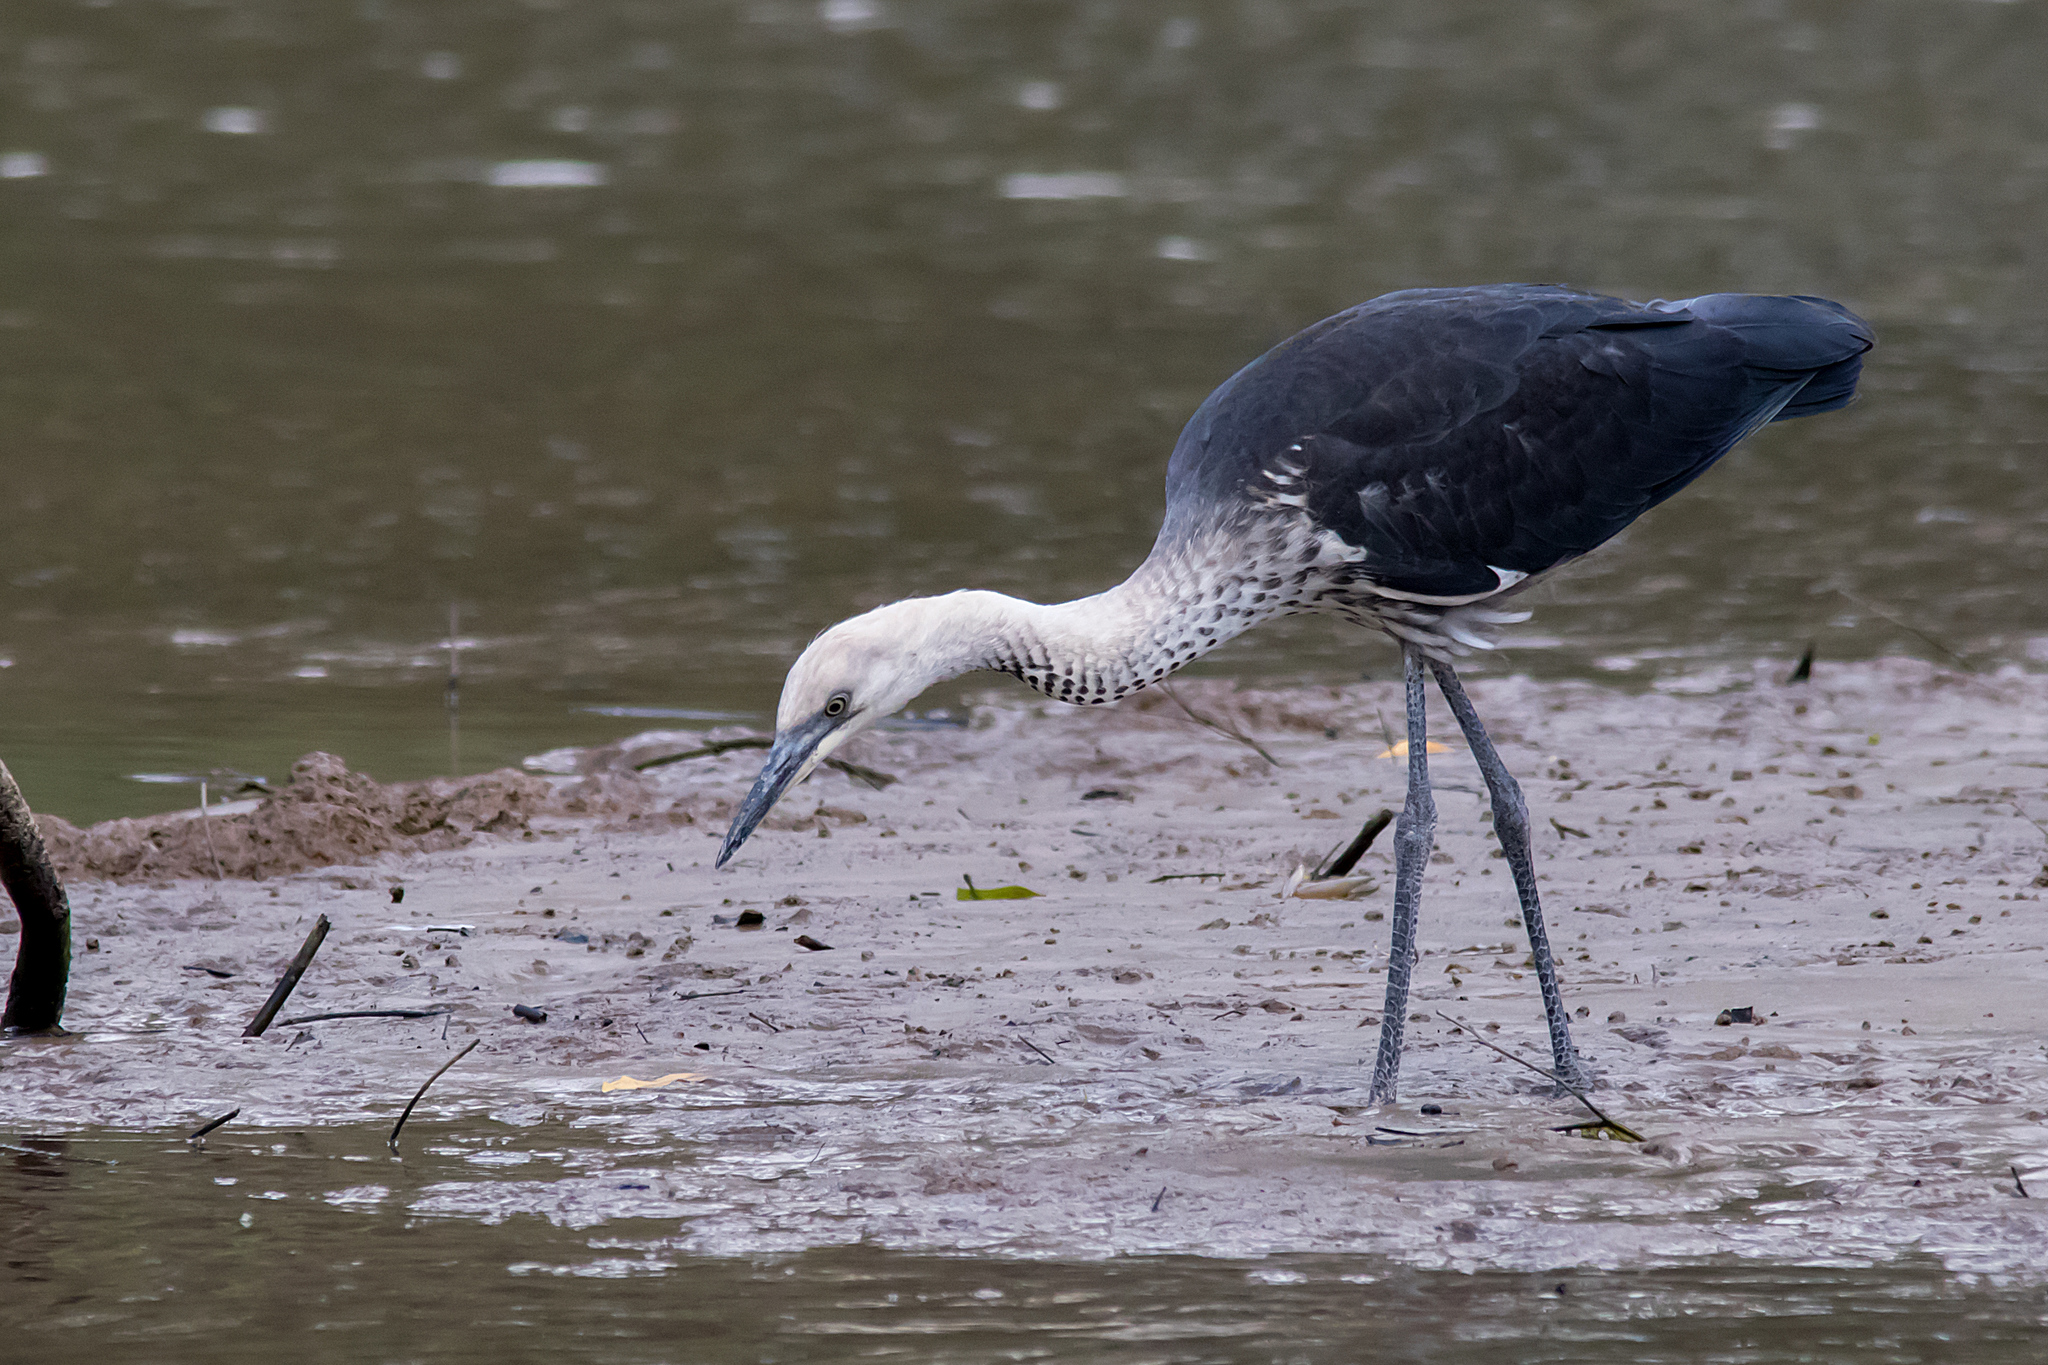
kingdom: Animalia
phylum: Chordata
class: Aves
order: Pelecaniformes
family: Ardeidae
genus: Ardea
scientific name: Ardea pacifica
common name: White-necked heron
